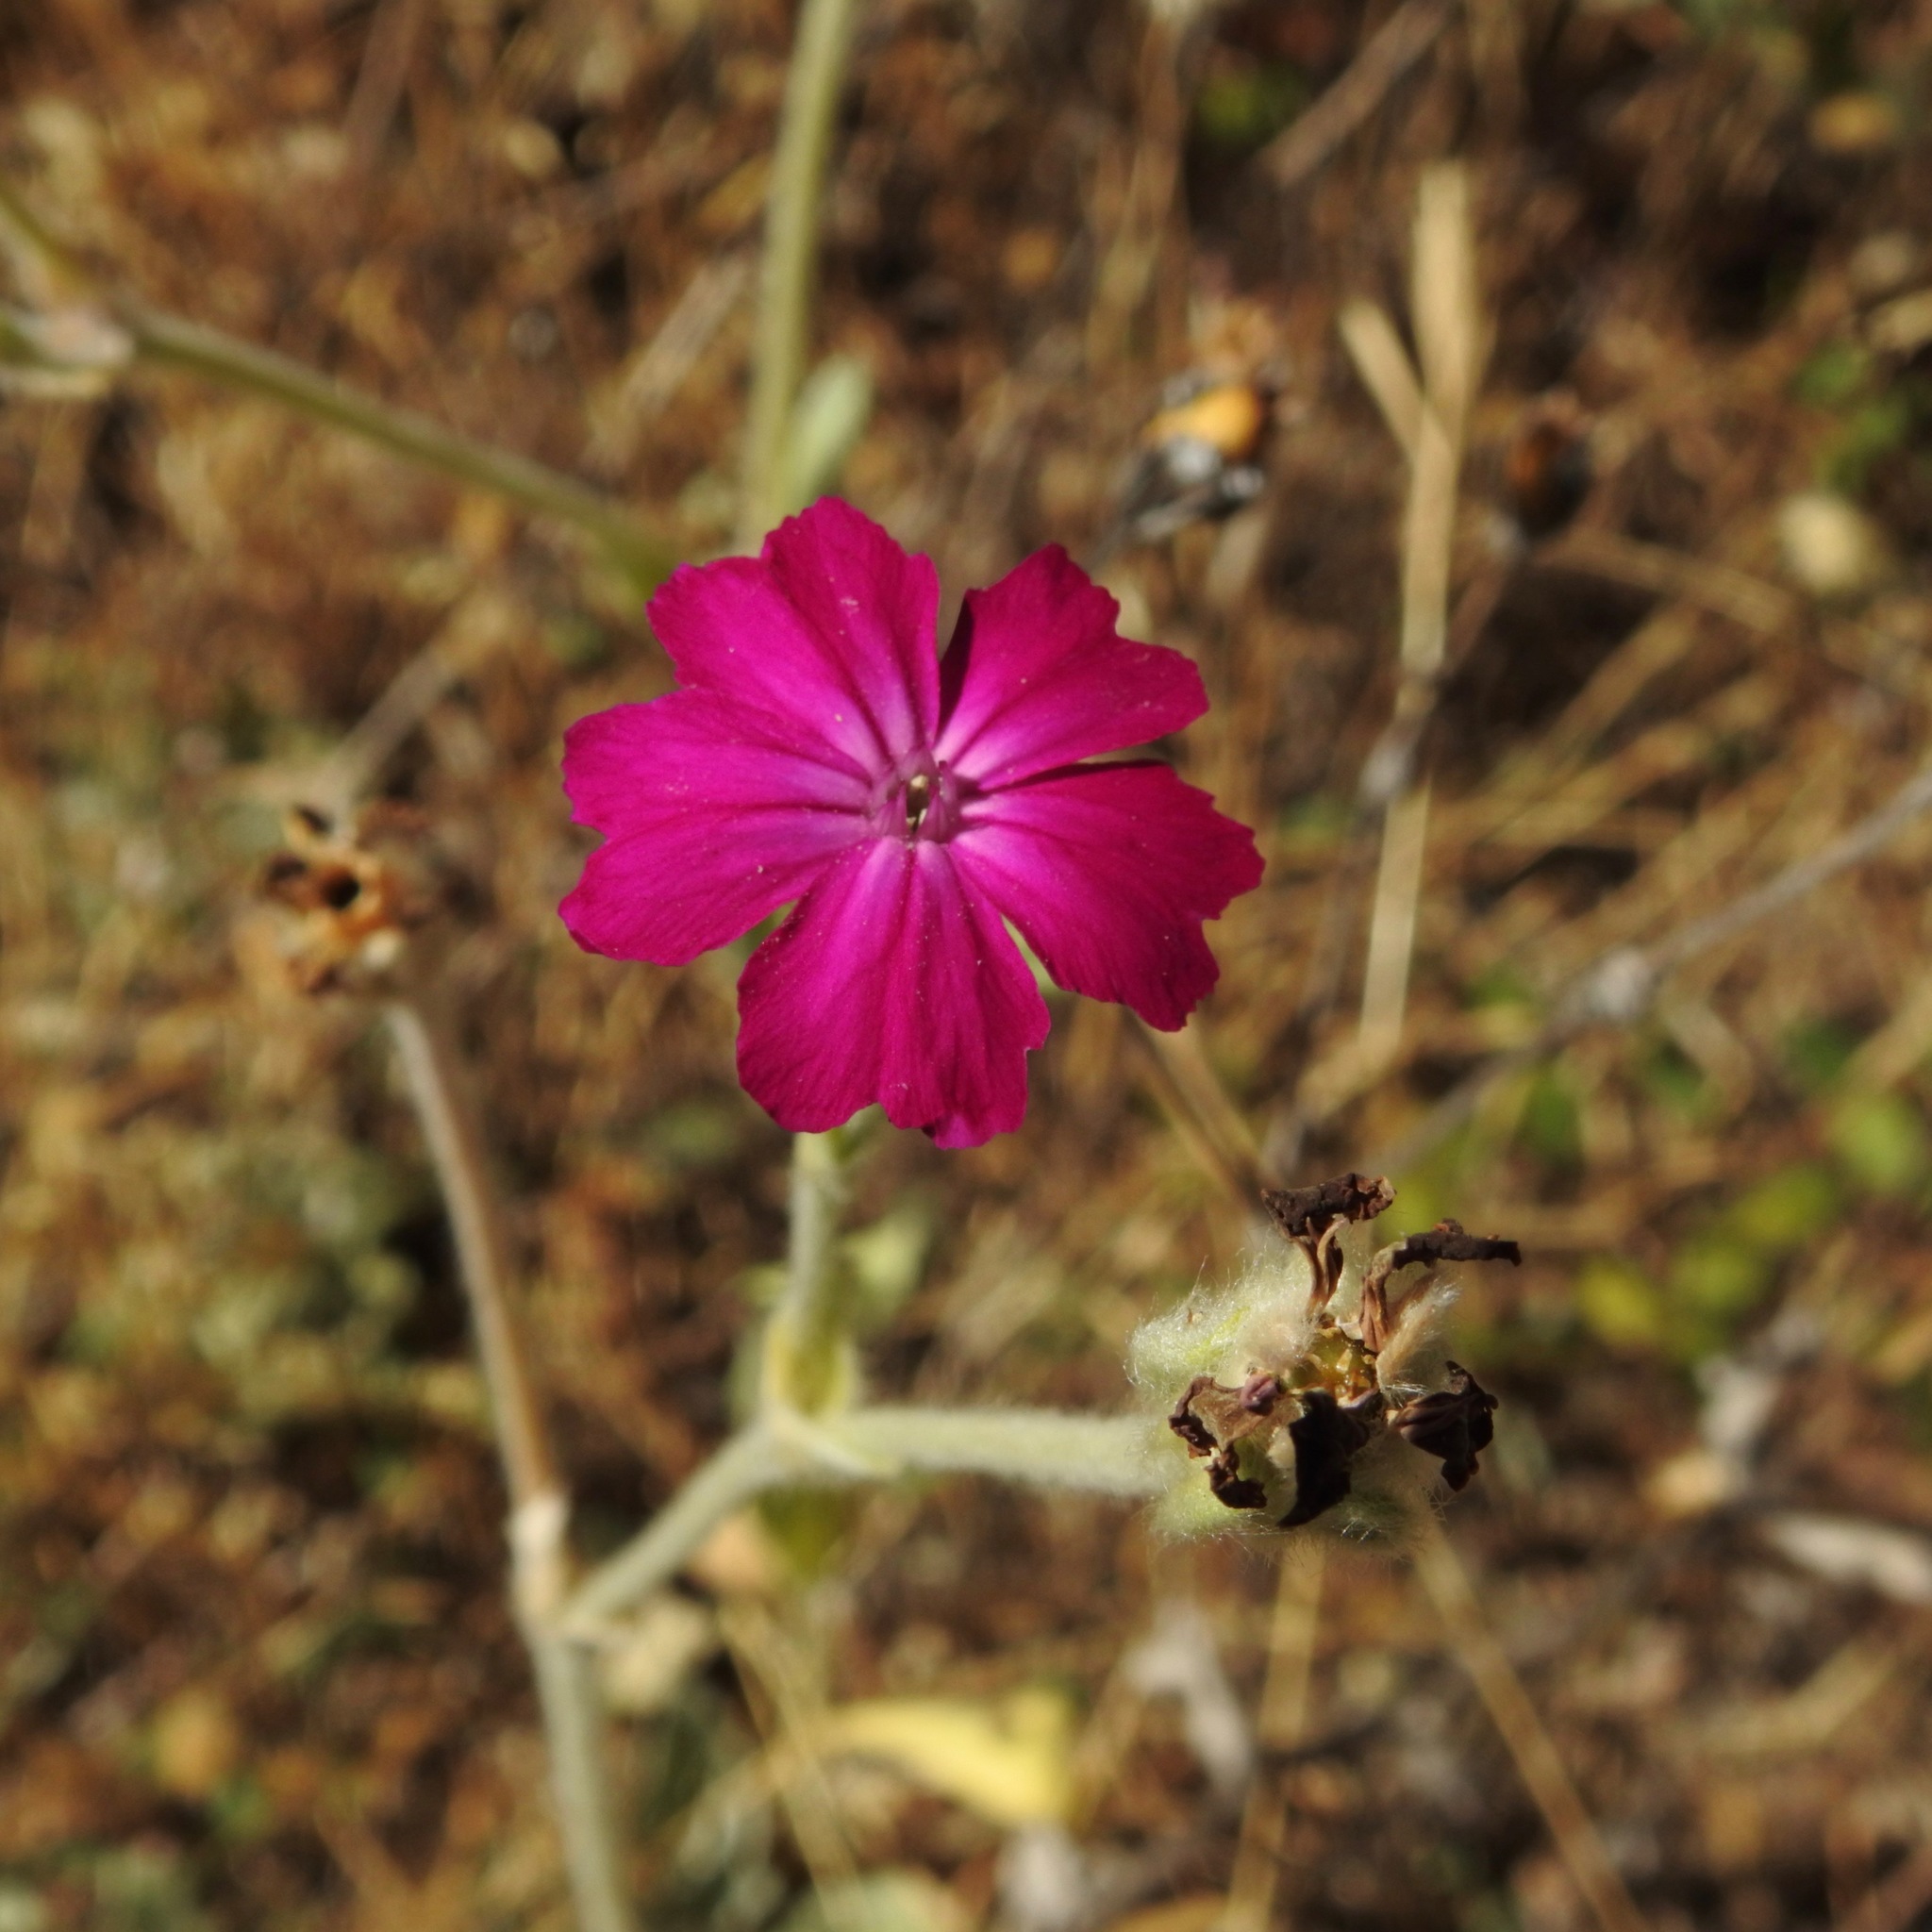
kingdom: Plantae
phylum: Tracheophyta
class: Magnoliopsida
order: Caryophyllales
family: Caryophyllaceae
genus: Silene
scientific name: Silene coronaria
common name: Rose campion
